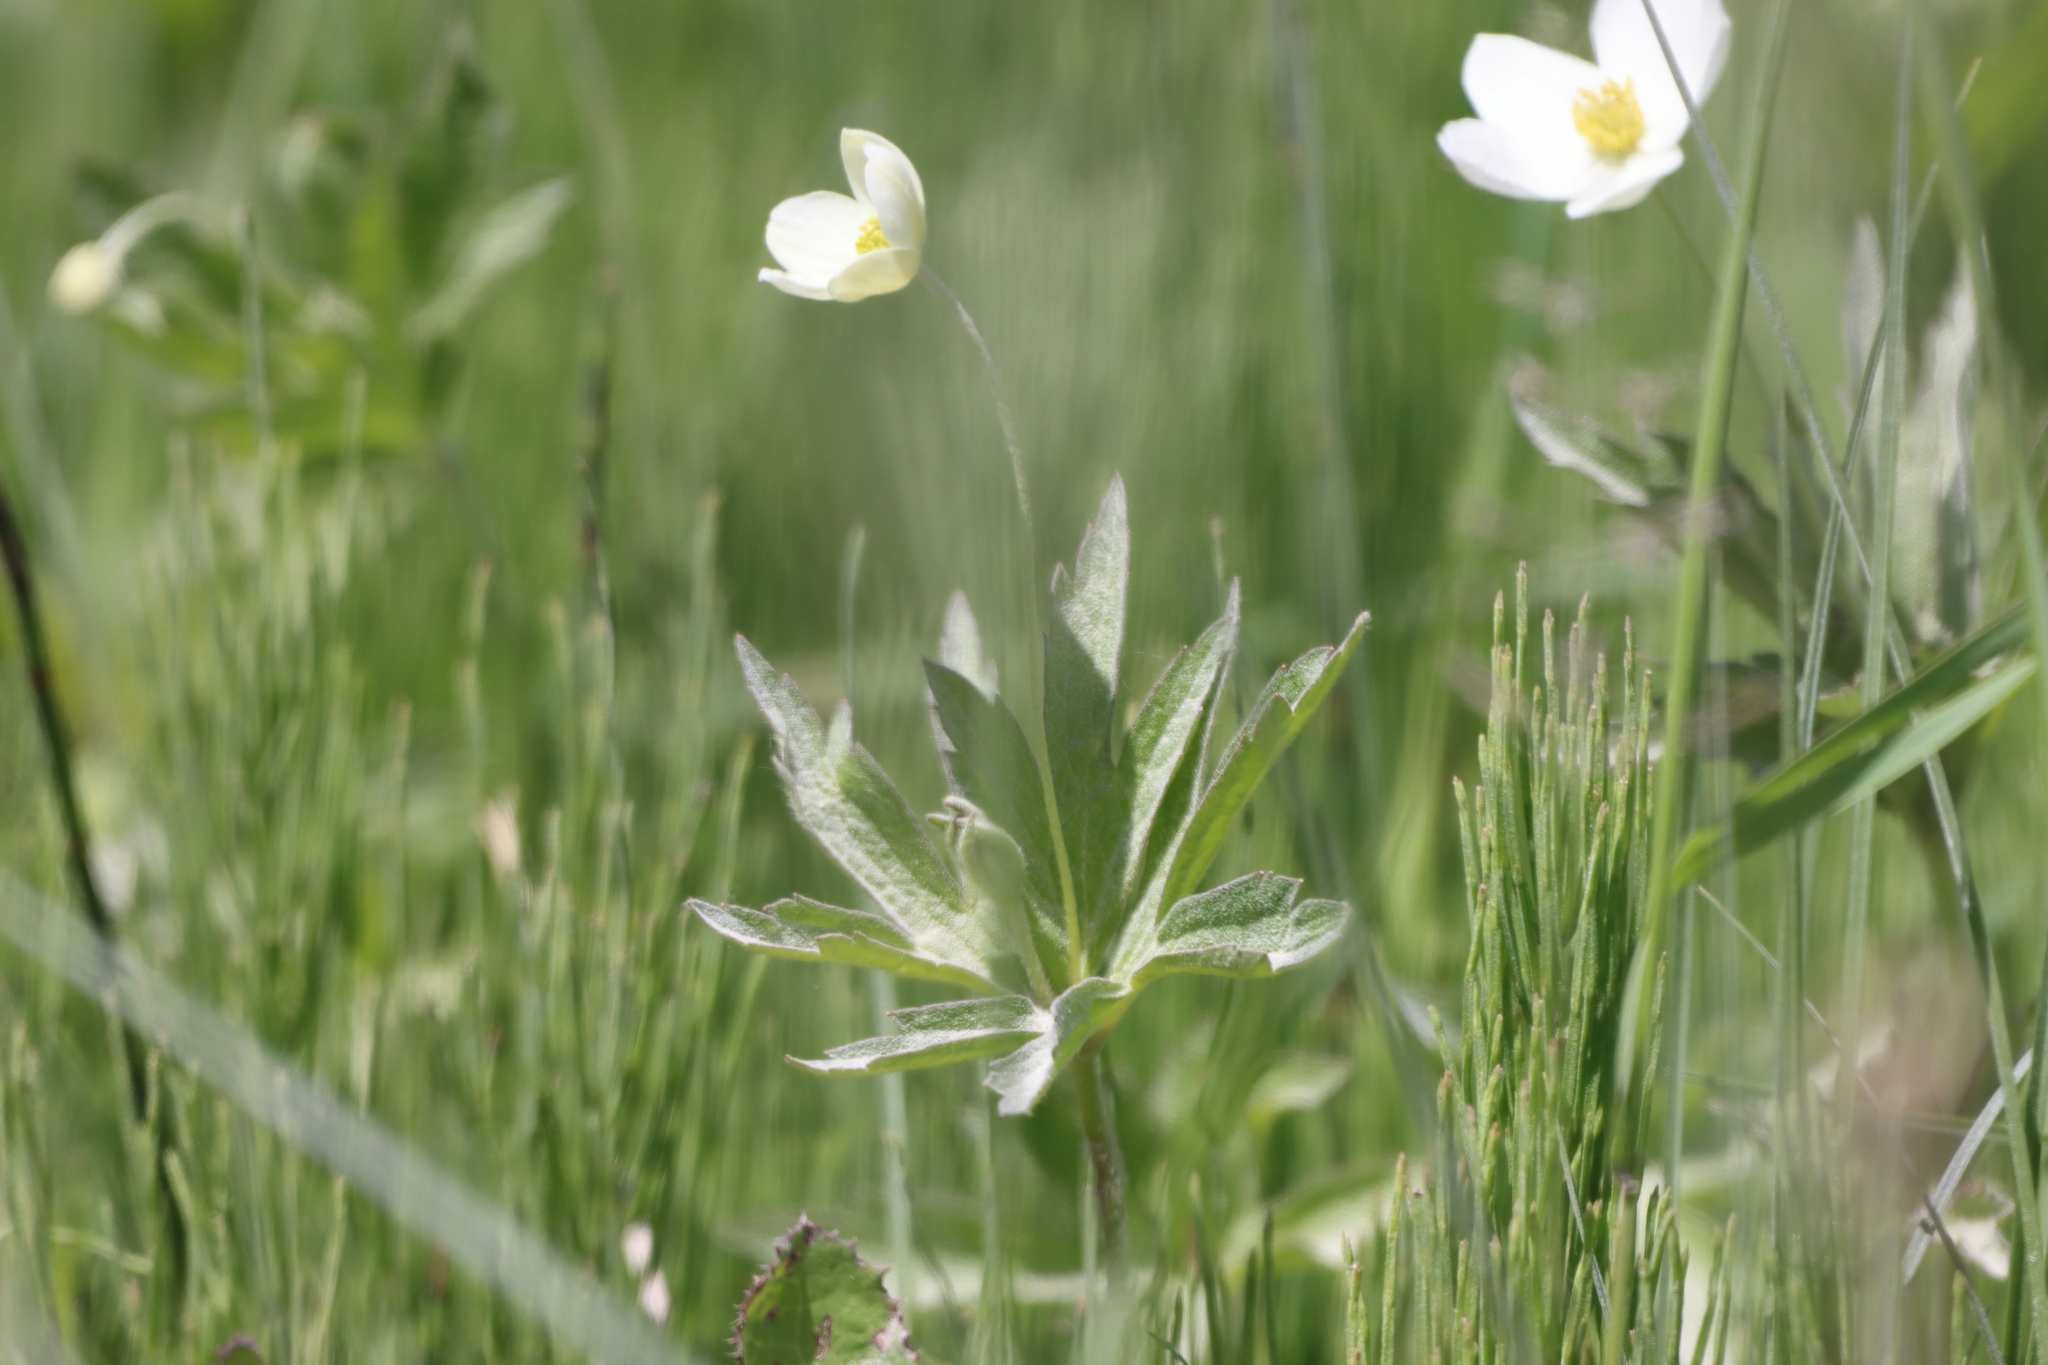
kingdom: Plantae
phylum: Tracheophyta
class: Magnoliopsida
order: Ranunculales
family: Ranunculaceae
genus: Anemonastrum
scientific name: Anemonastrum canadense
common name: Canada anemone
